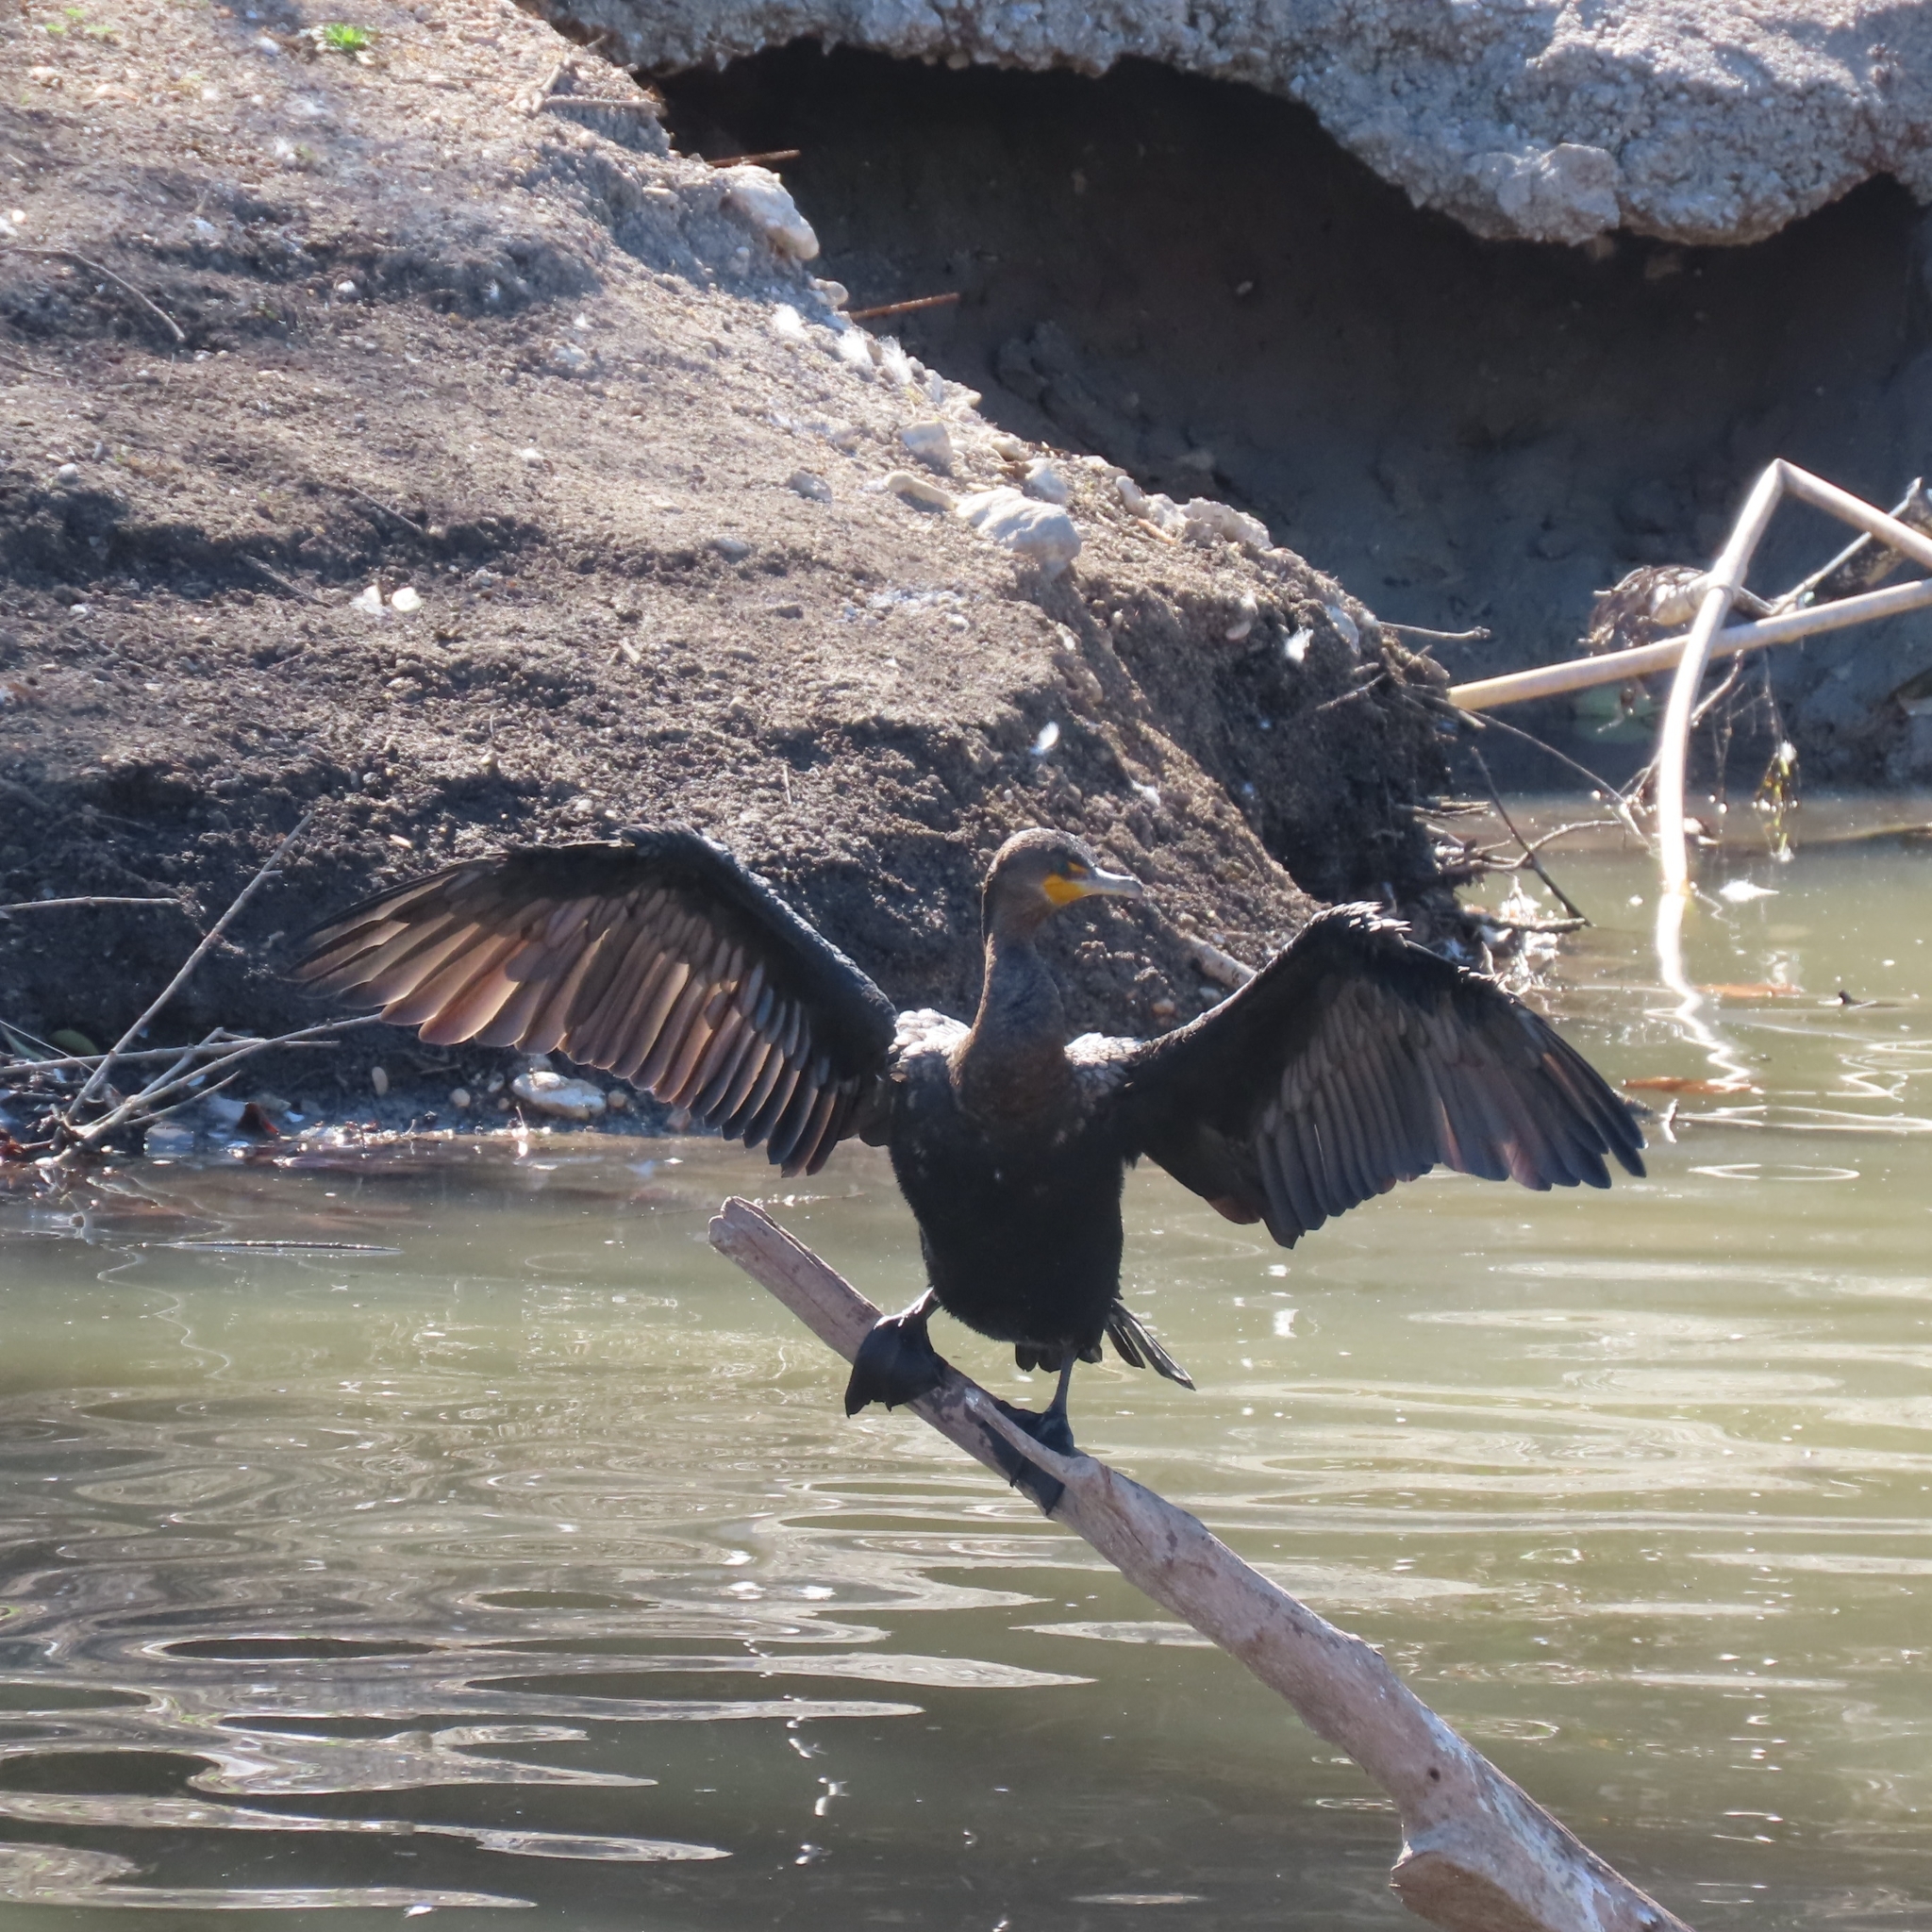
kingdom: Animalia
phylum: Chordata
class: Aves
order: Suliformes
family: Phalacrocoracidae
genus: Phalacrocorax
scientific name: Phalacrocorax auritus
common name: Double-crested cormorant
